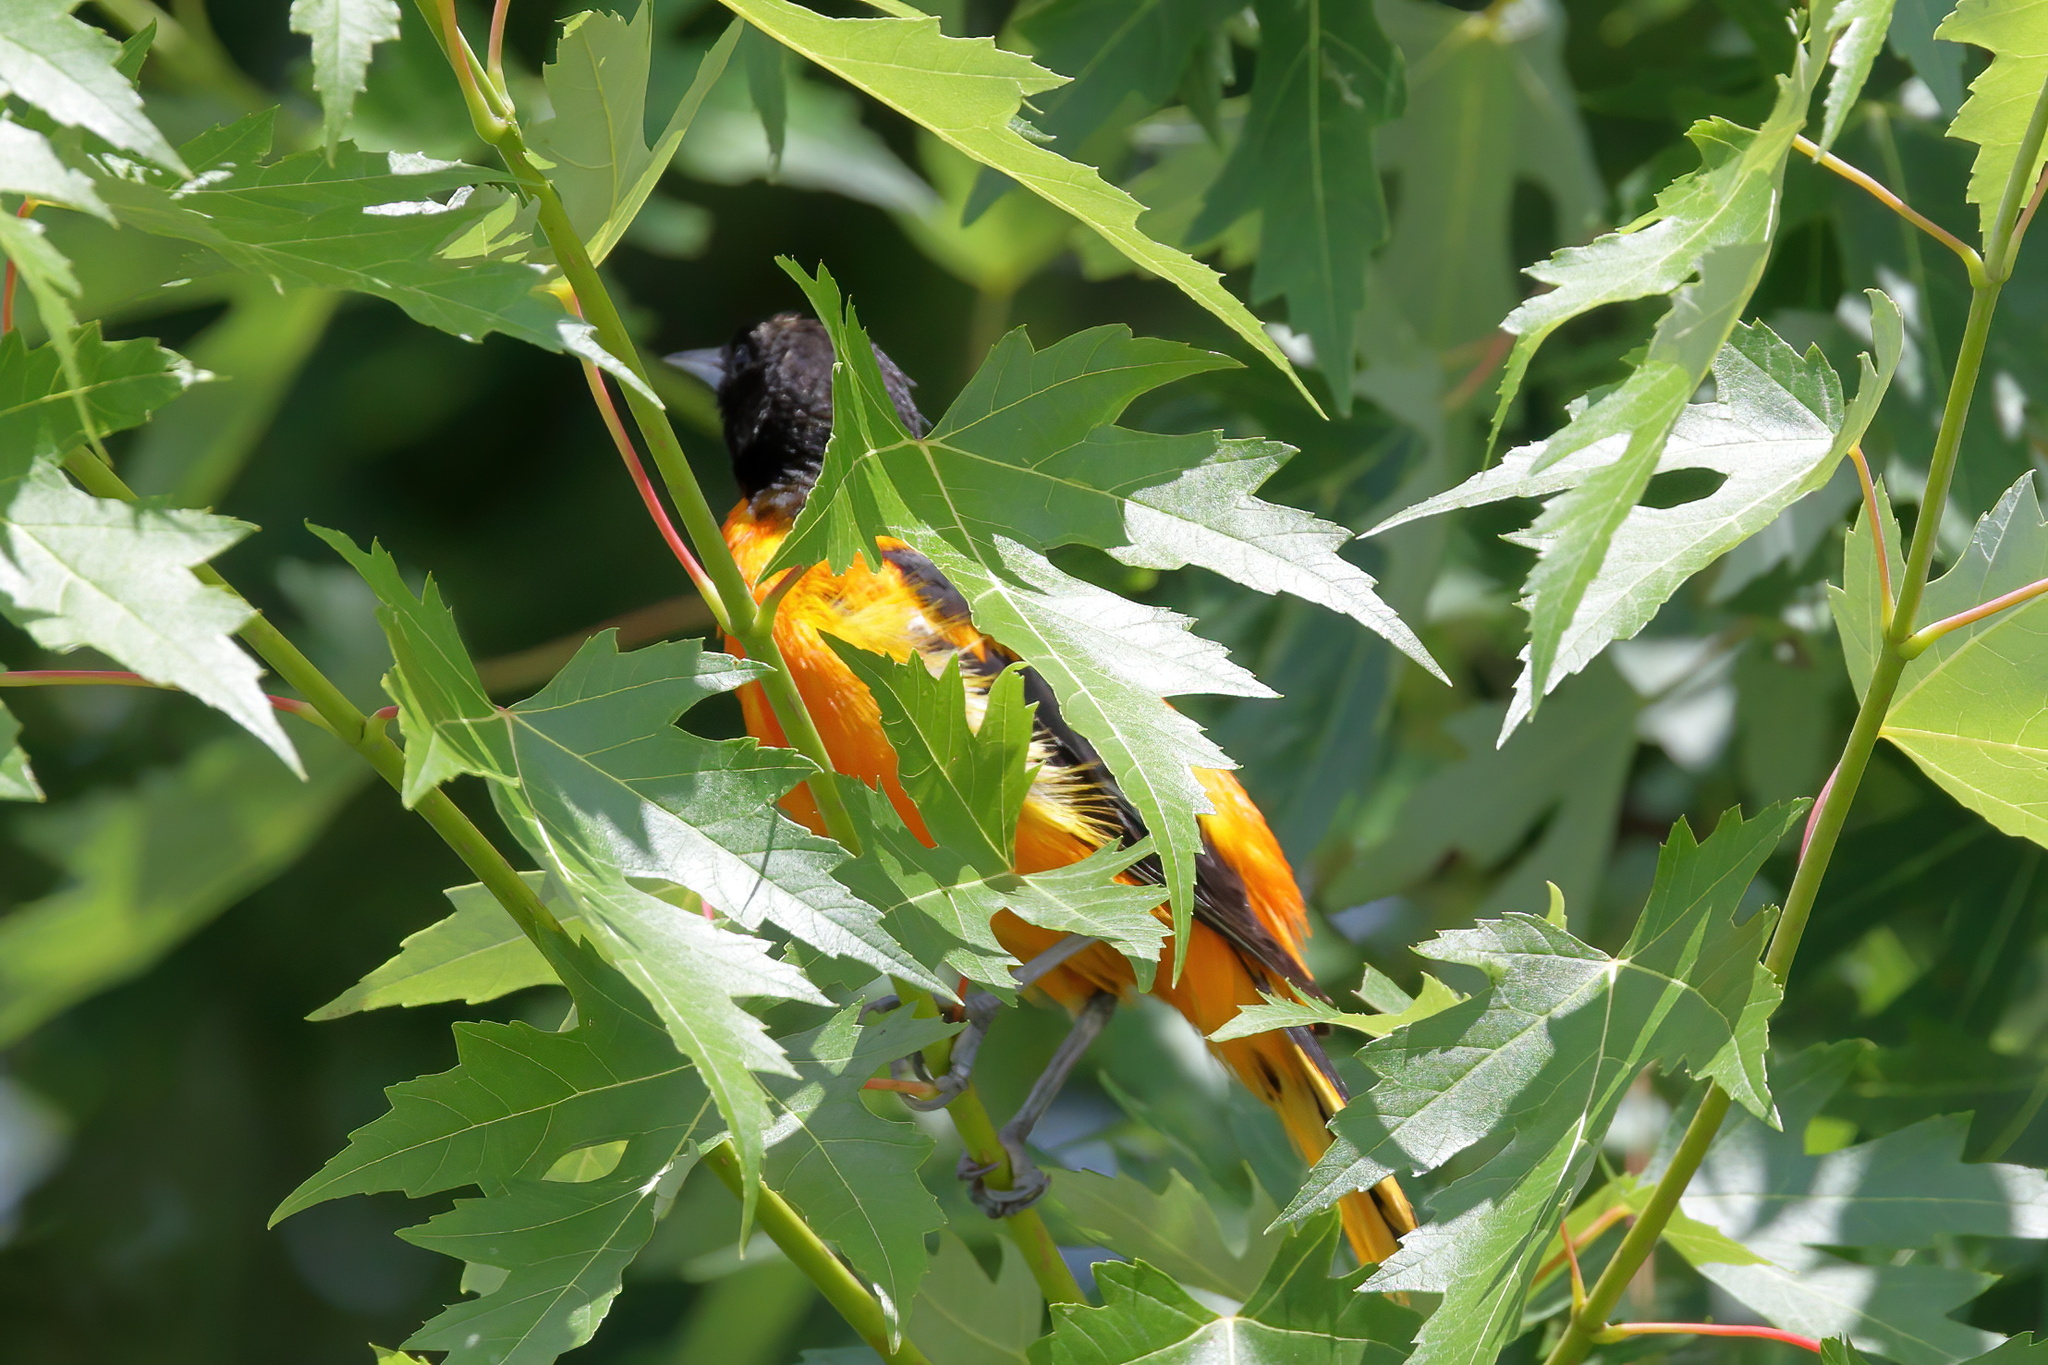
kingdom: Animalia
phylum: Chordata
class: Aves
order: Passeriformes
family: Icteridae
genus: Icterus
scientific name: Icterus galbula
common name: Baltimore oriole
